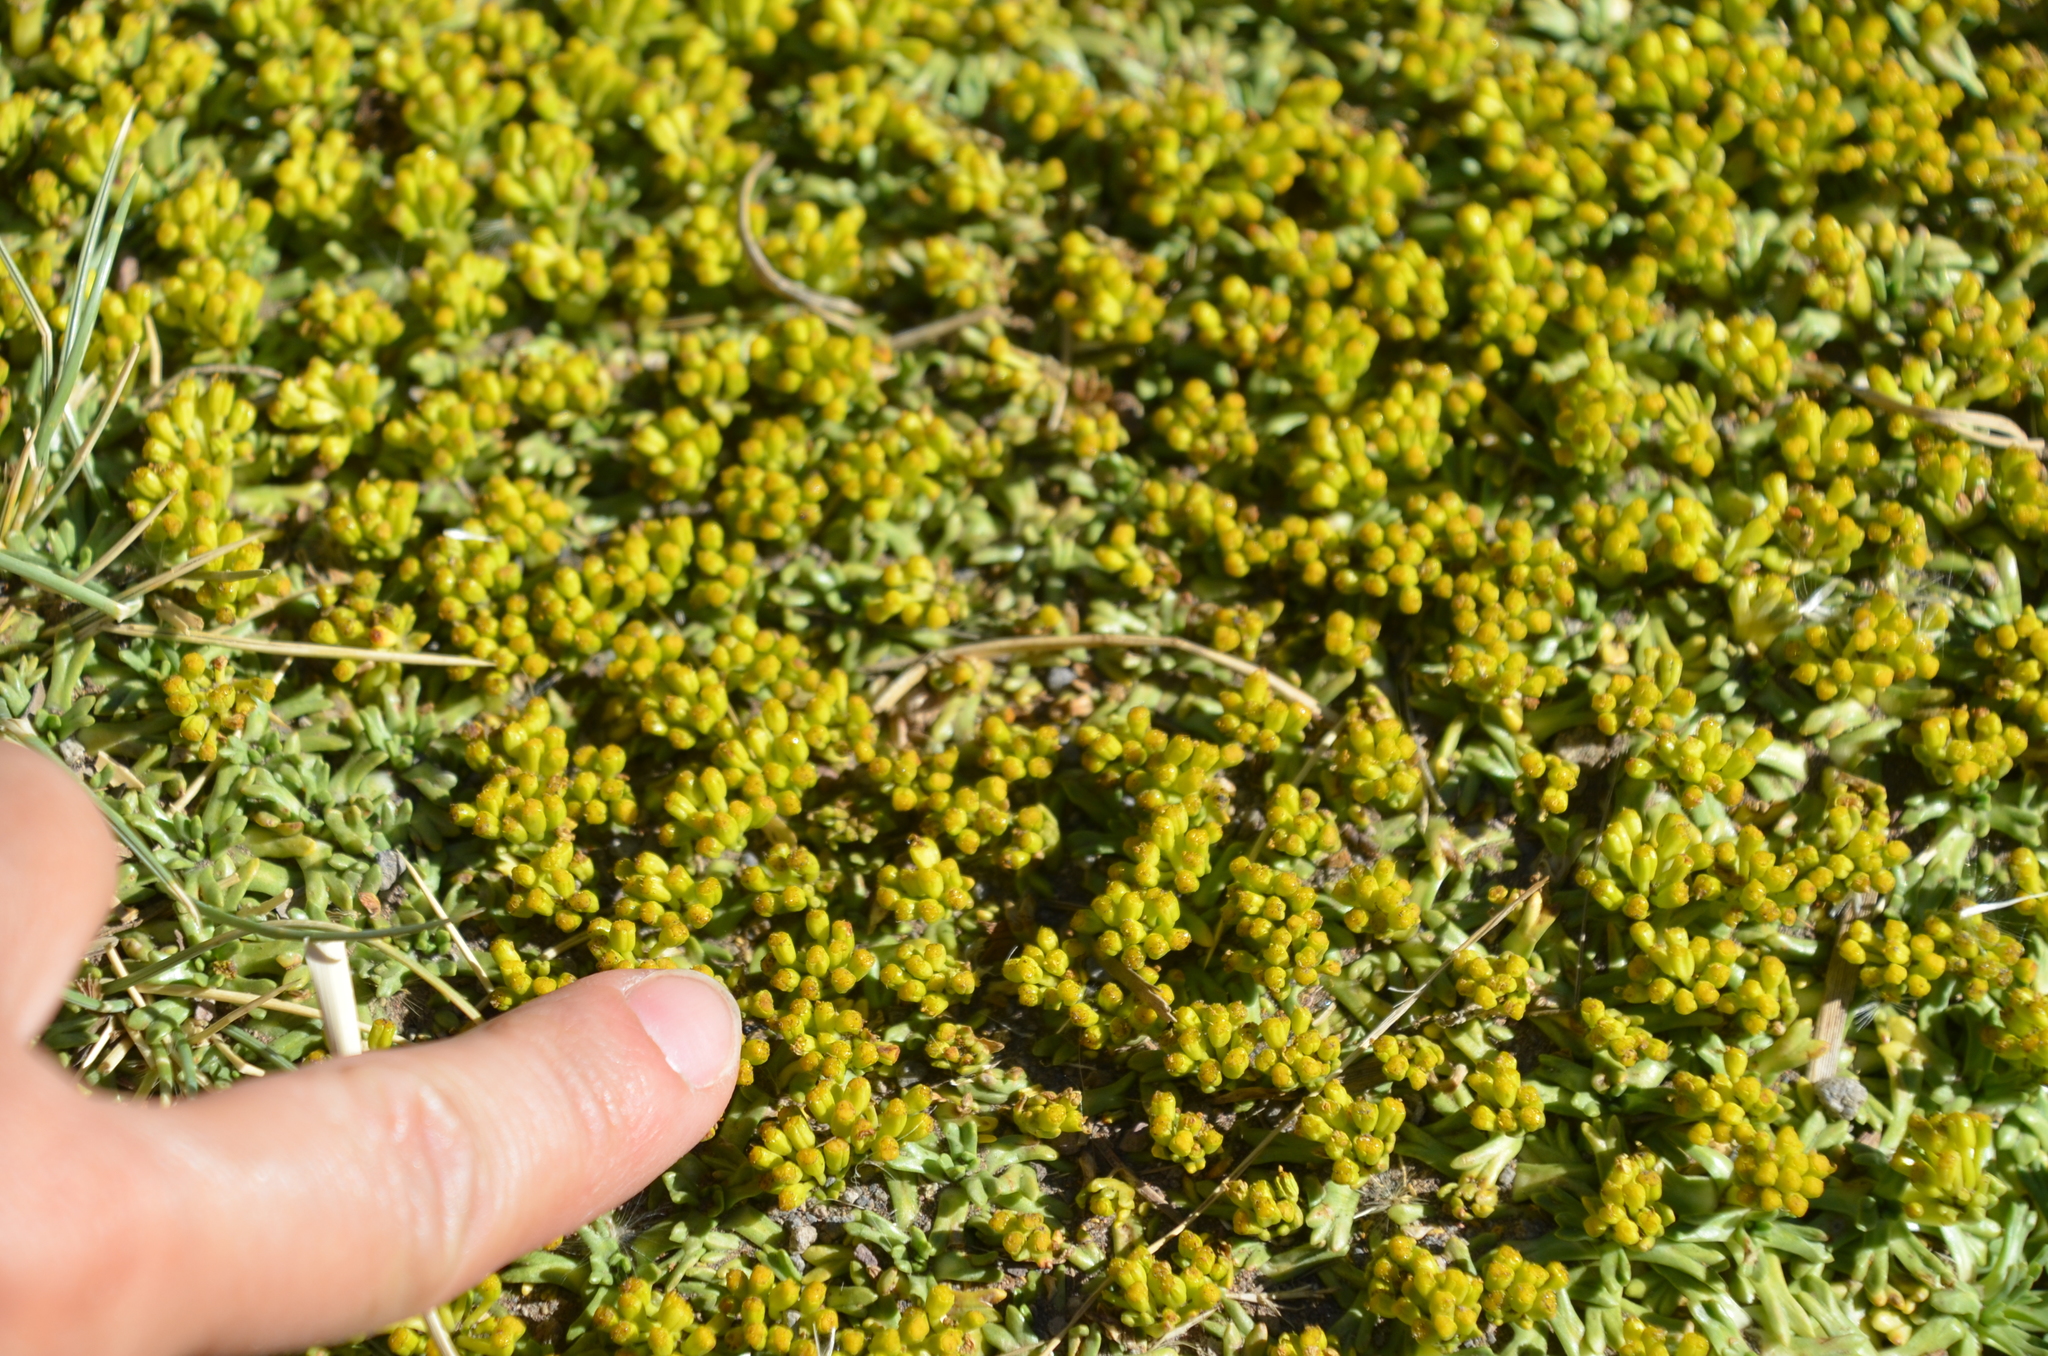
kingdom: Plantae
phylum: Tracheophyta
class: Magnoliopsida
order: Apiales
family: Apiaceae
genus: Azorella
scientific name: Azorella trifurcata
